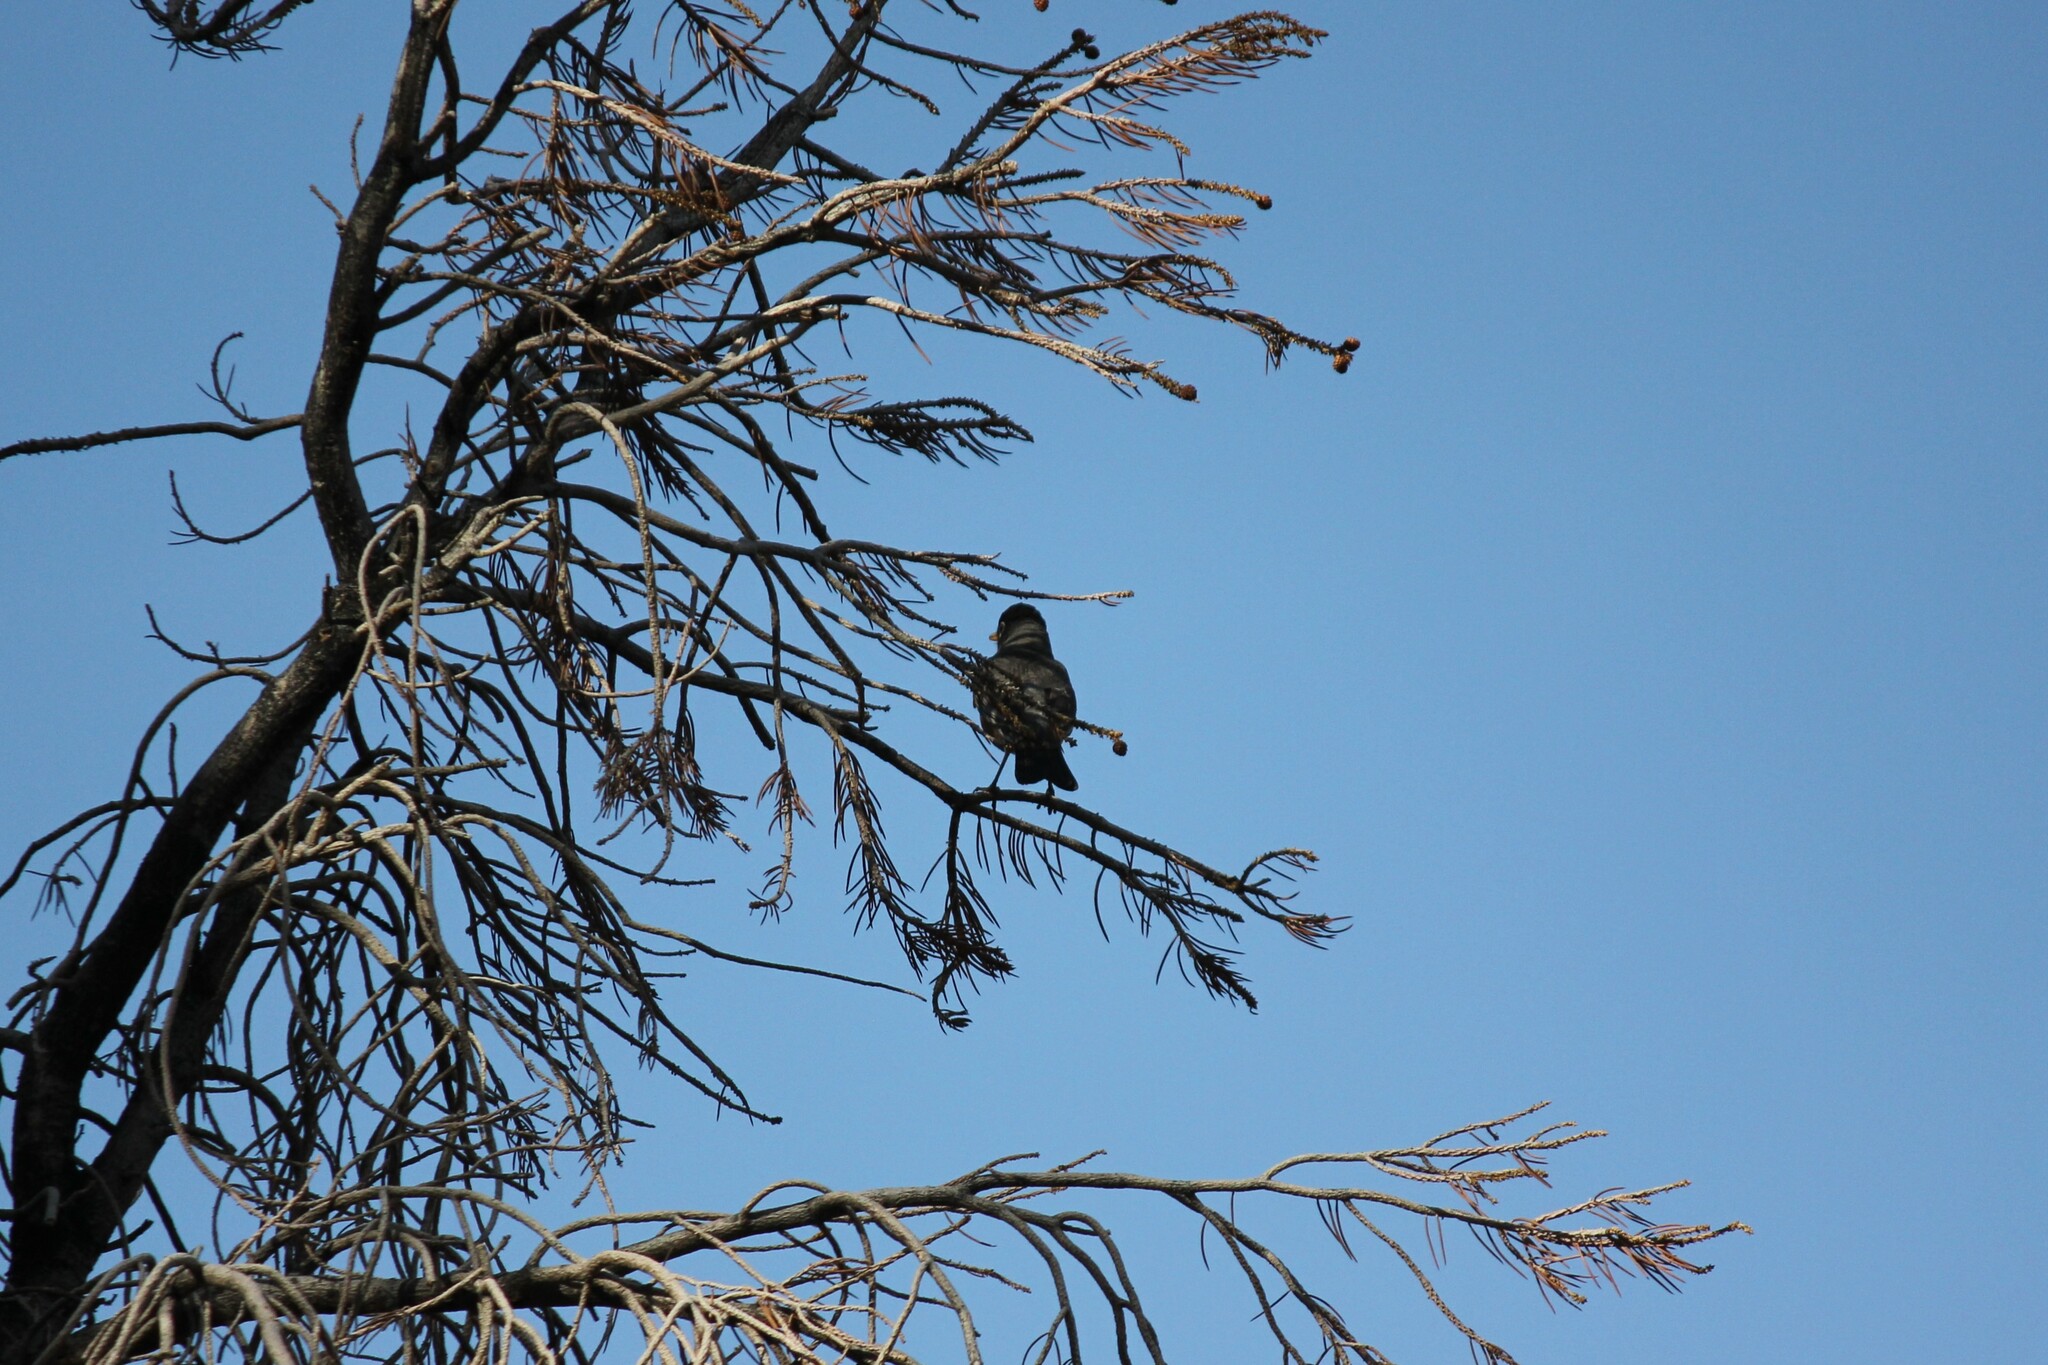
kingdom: Animalia
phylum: Chordata
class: Aves
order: Passeriformes
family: Turdidae
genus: Turdus
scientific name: Turdus migratorius
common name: American robin
